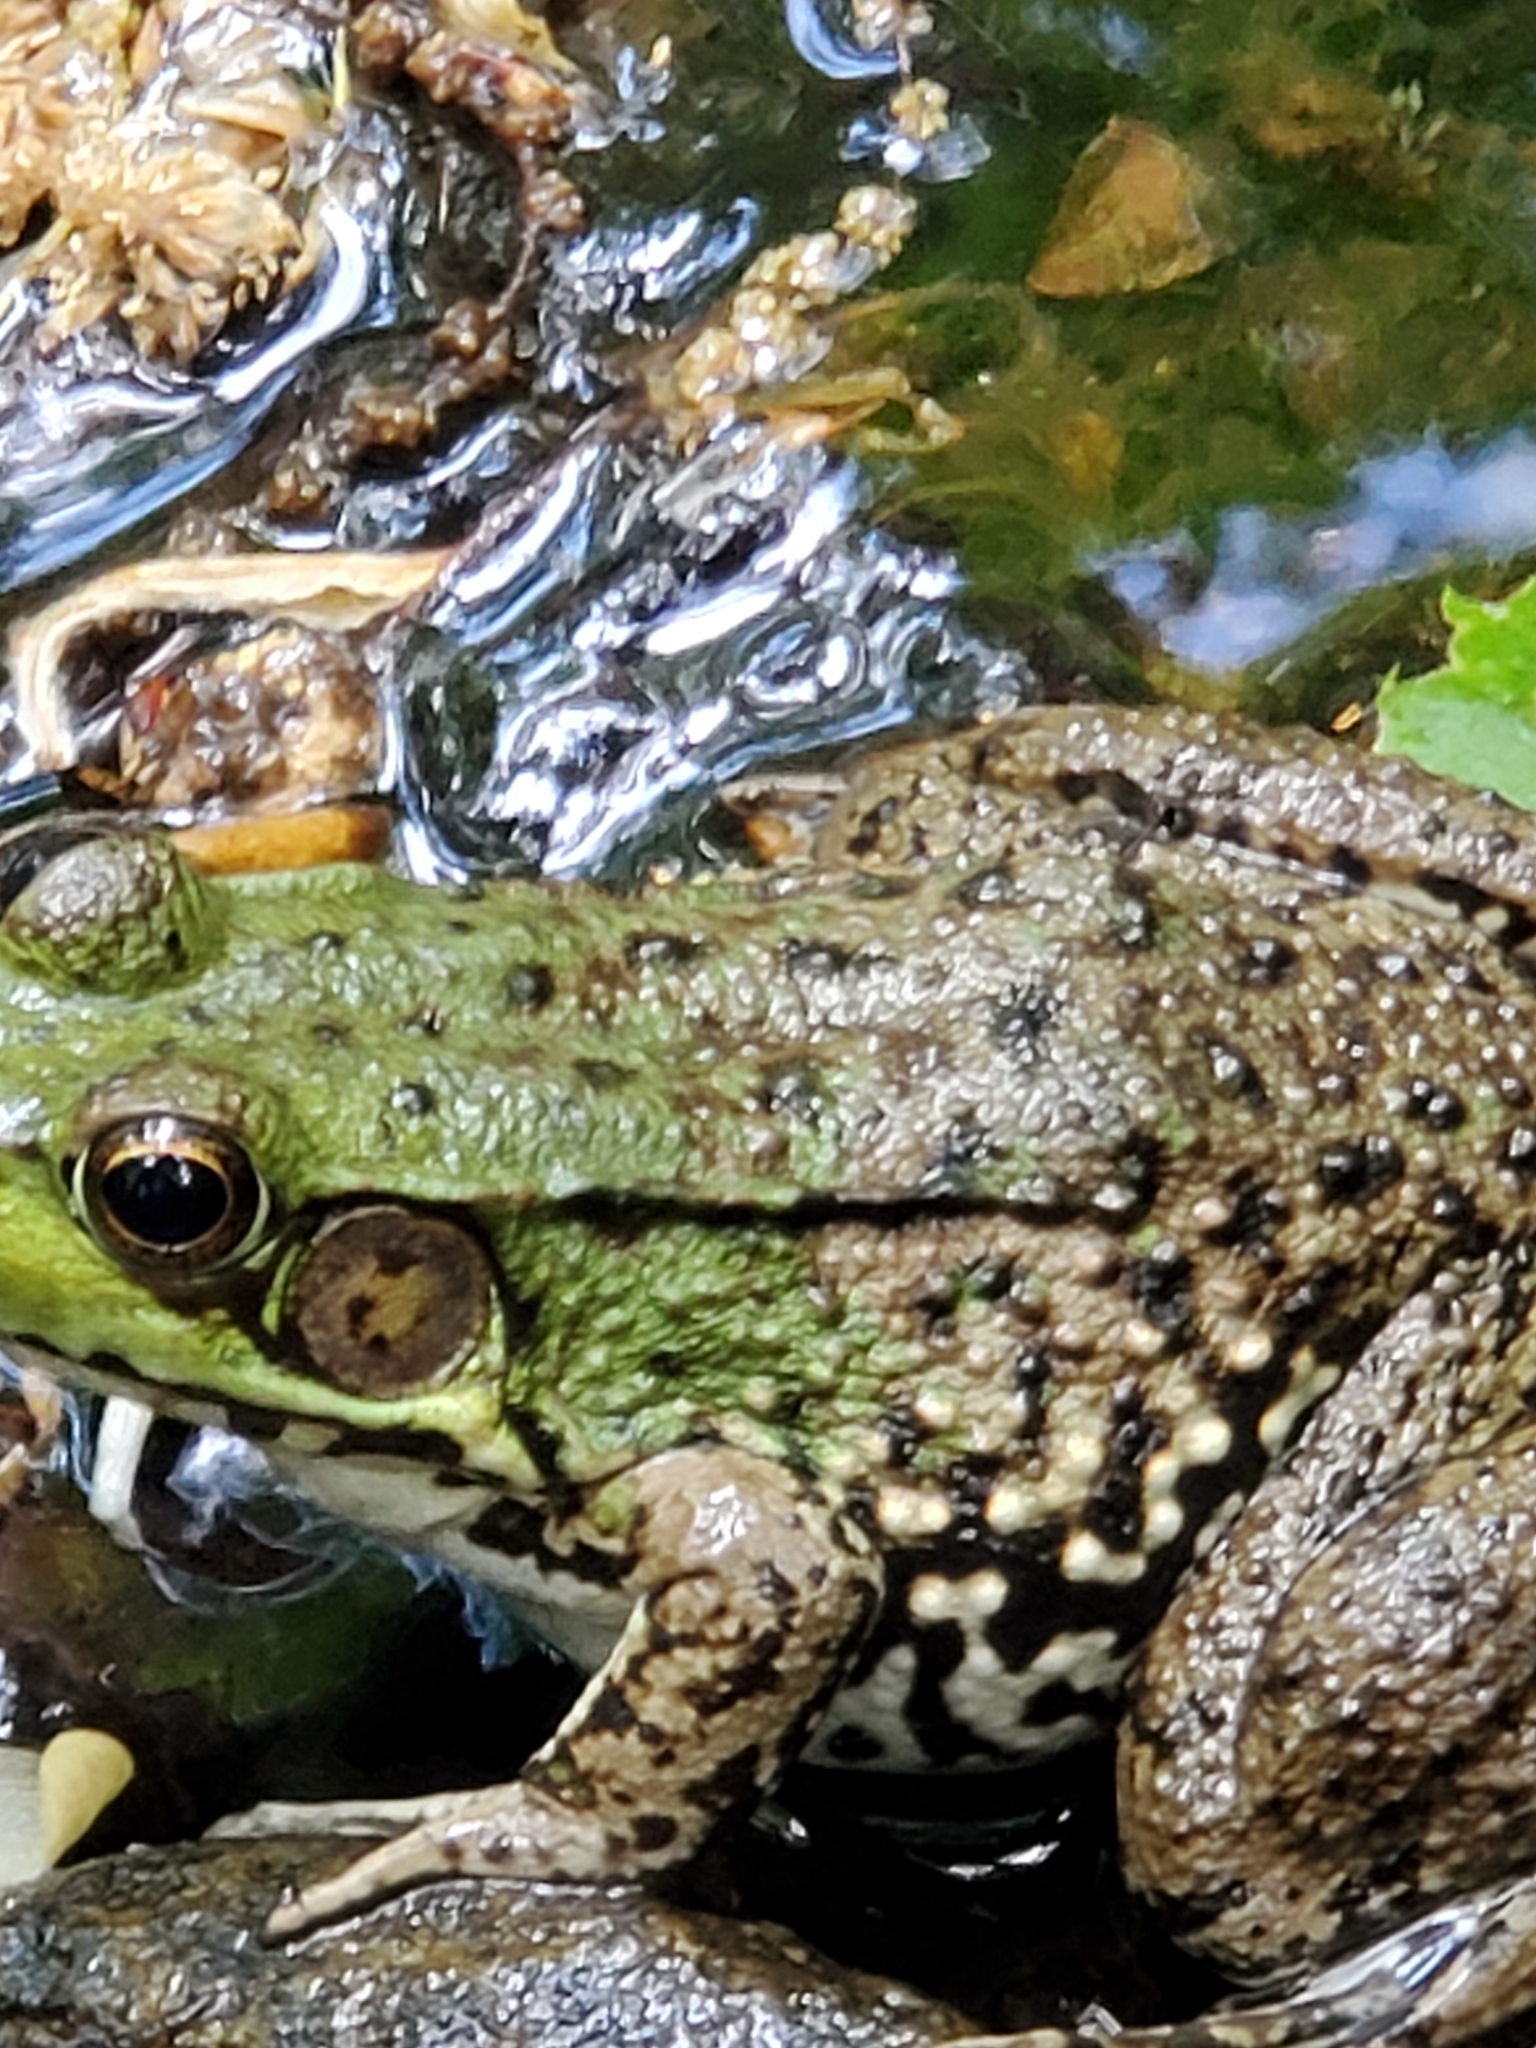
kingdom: Animalia
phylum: Chordata
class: Amphibia
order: Anura
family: Ranidae
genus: Lithobates
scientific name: Lithobates clamitans
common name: Green frog
